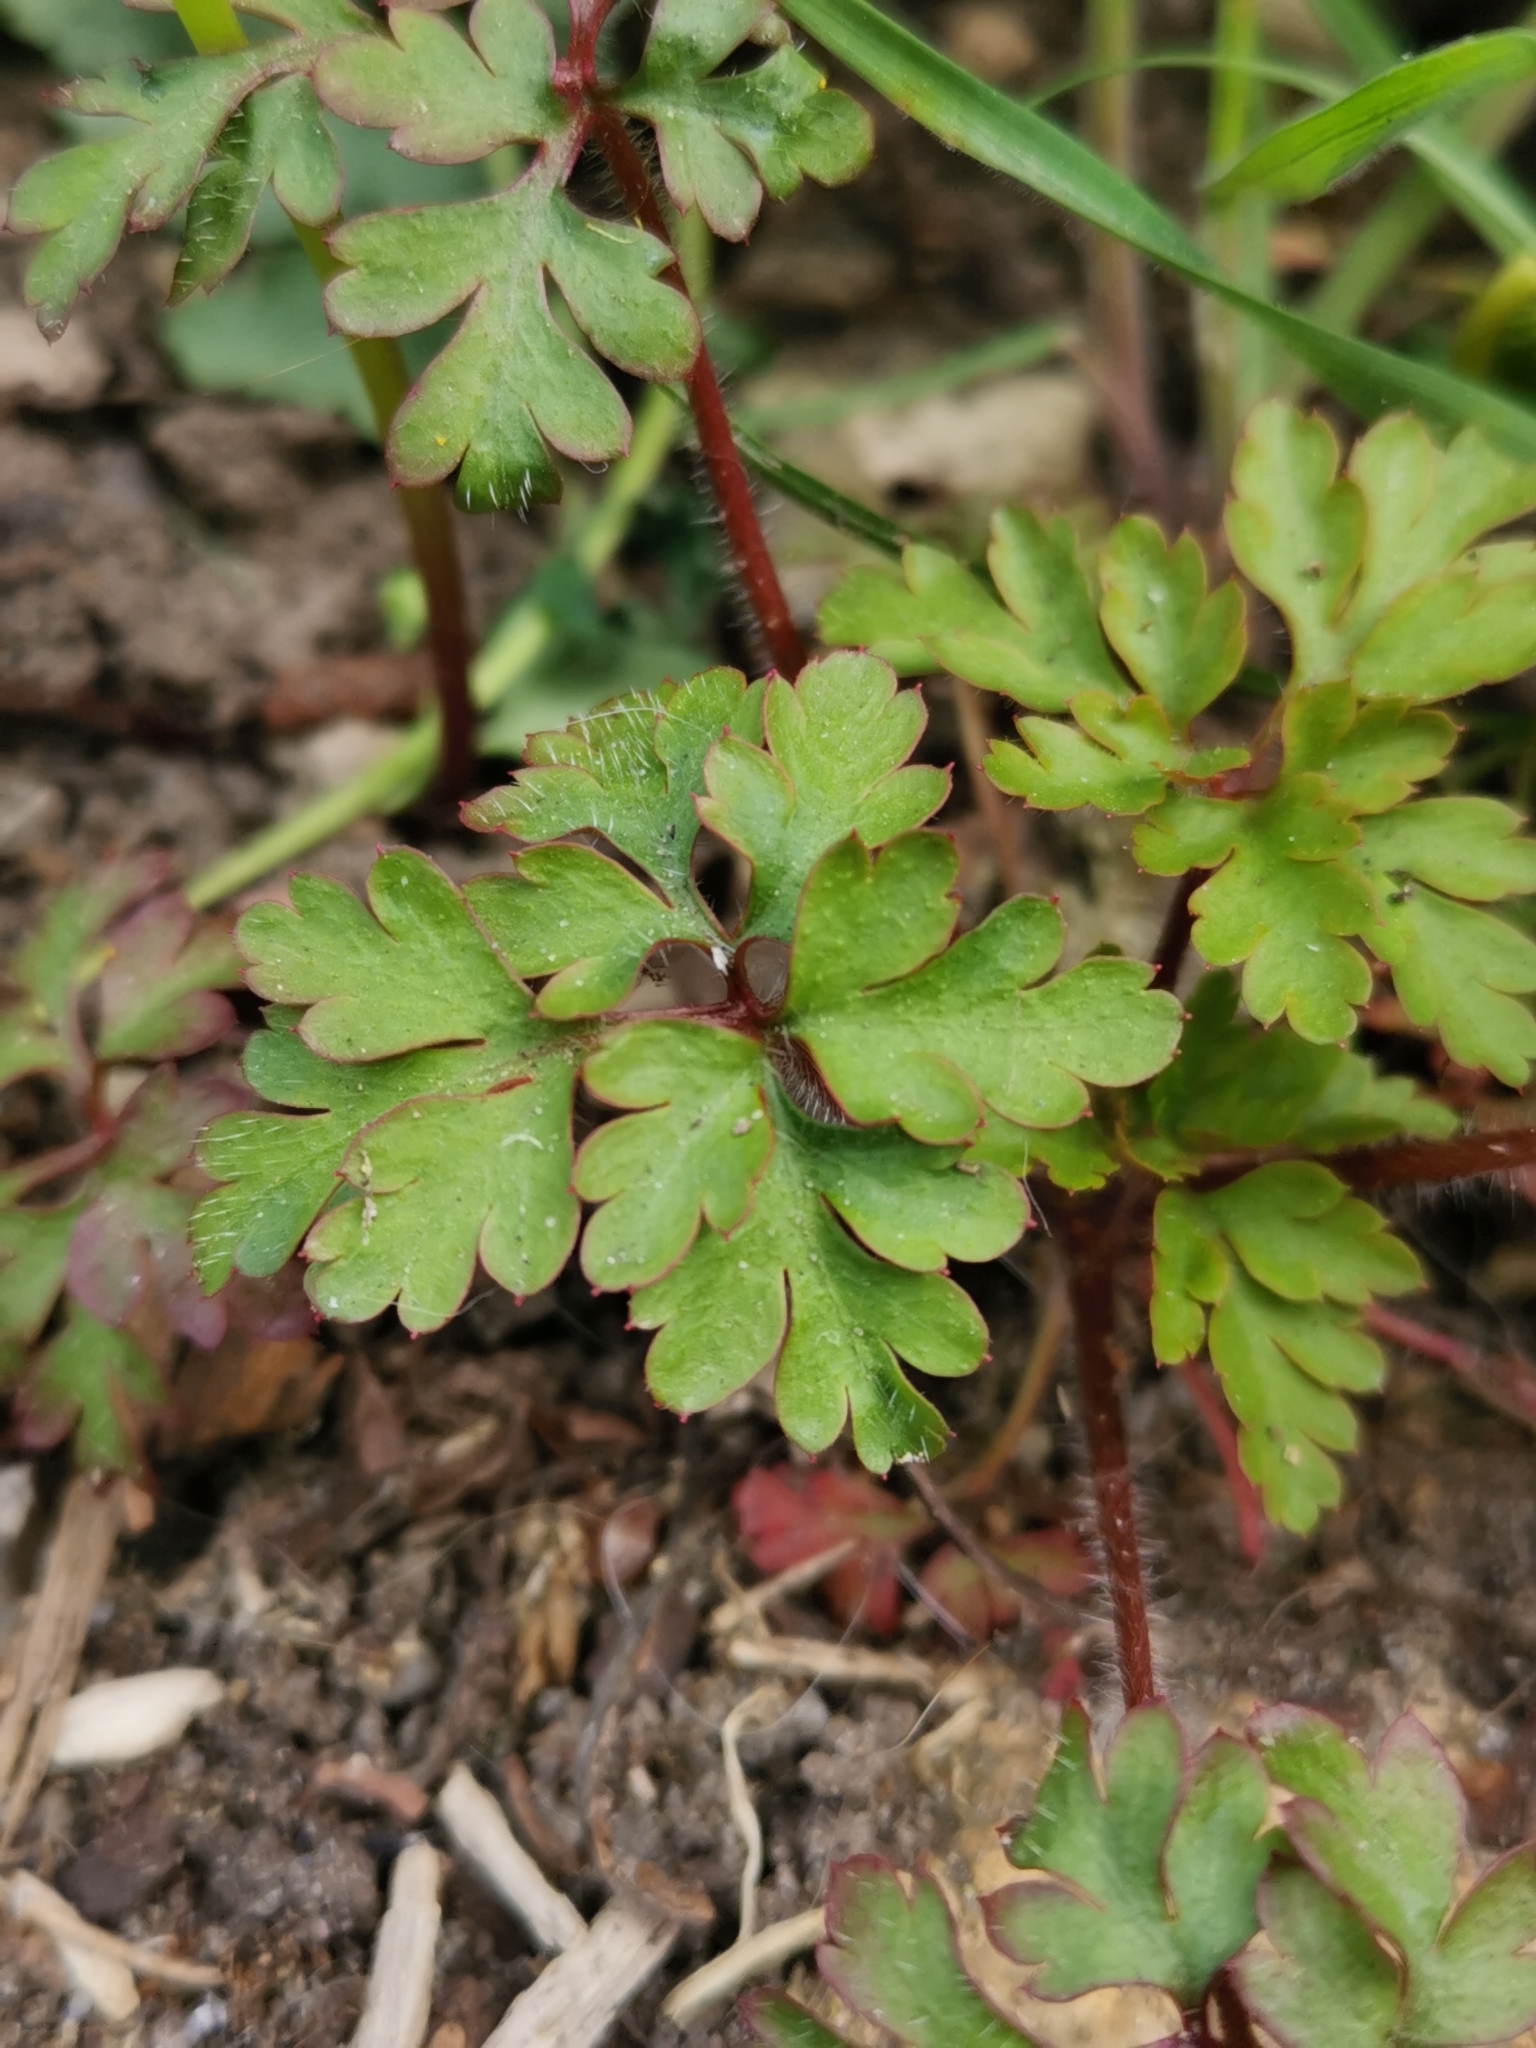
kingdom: Plantae
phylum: Tracheophyta
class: Magnoliopsida
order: Geraniales
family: Geraniaceae
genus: Geranium
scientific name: Geranium robertianum
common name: Herb-robert
